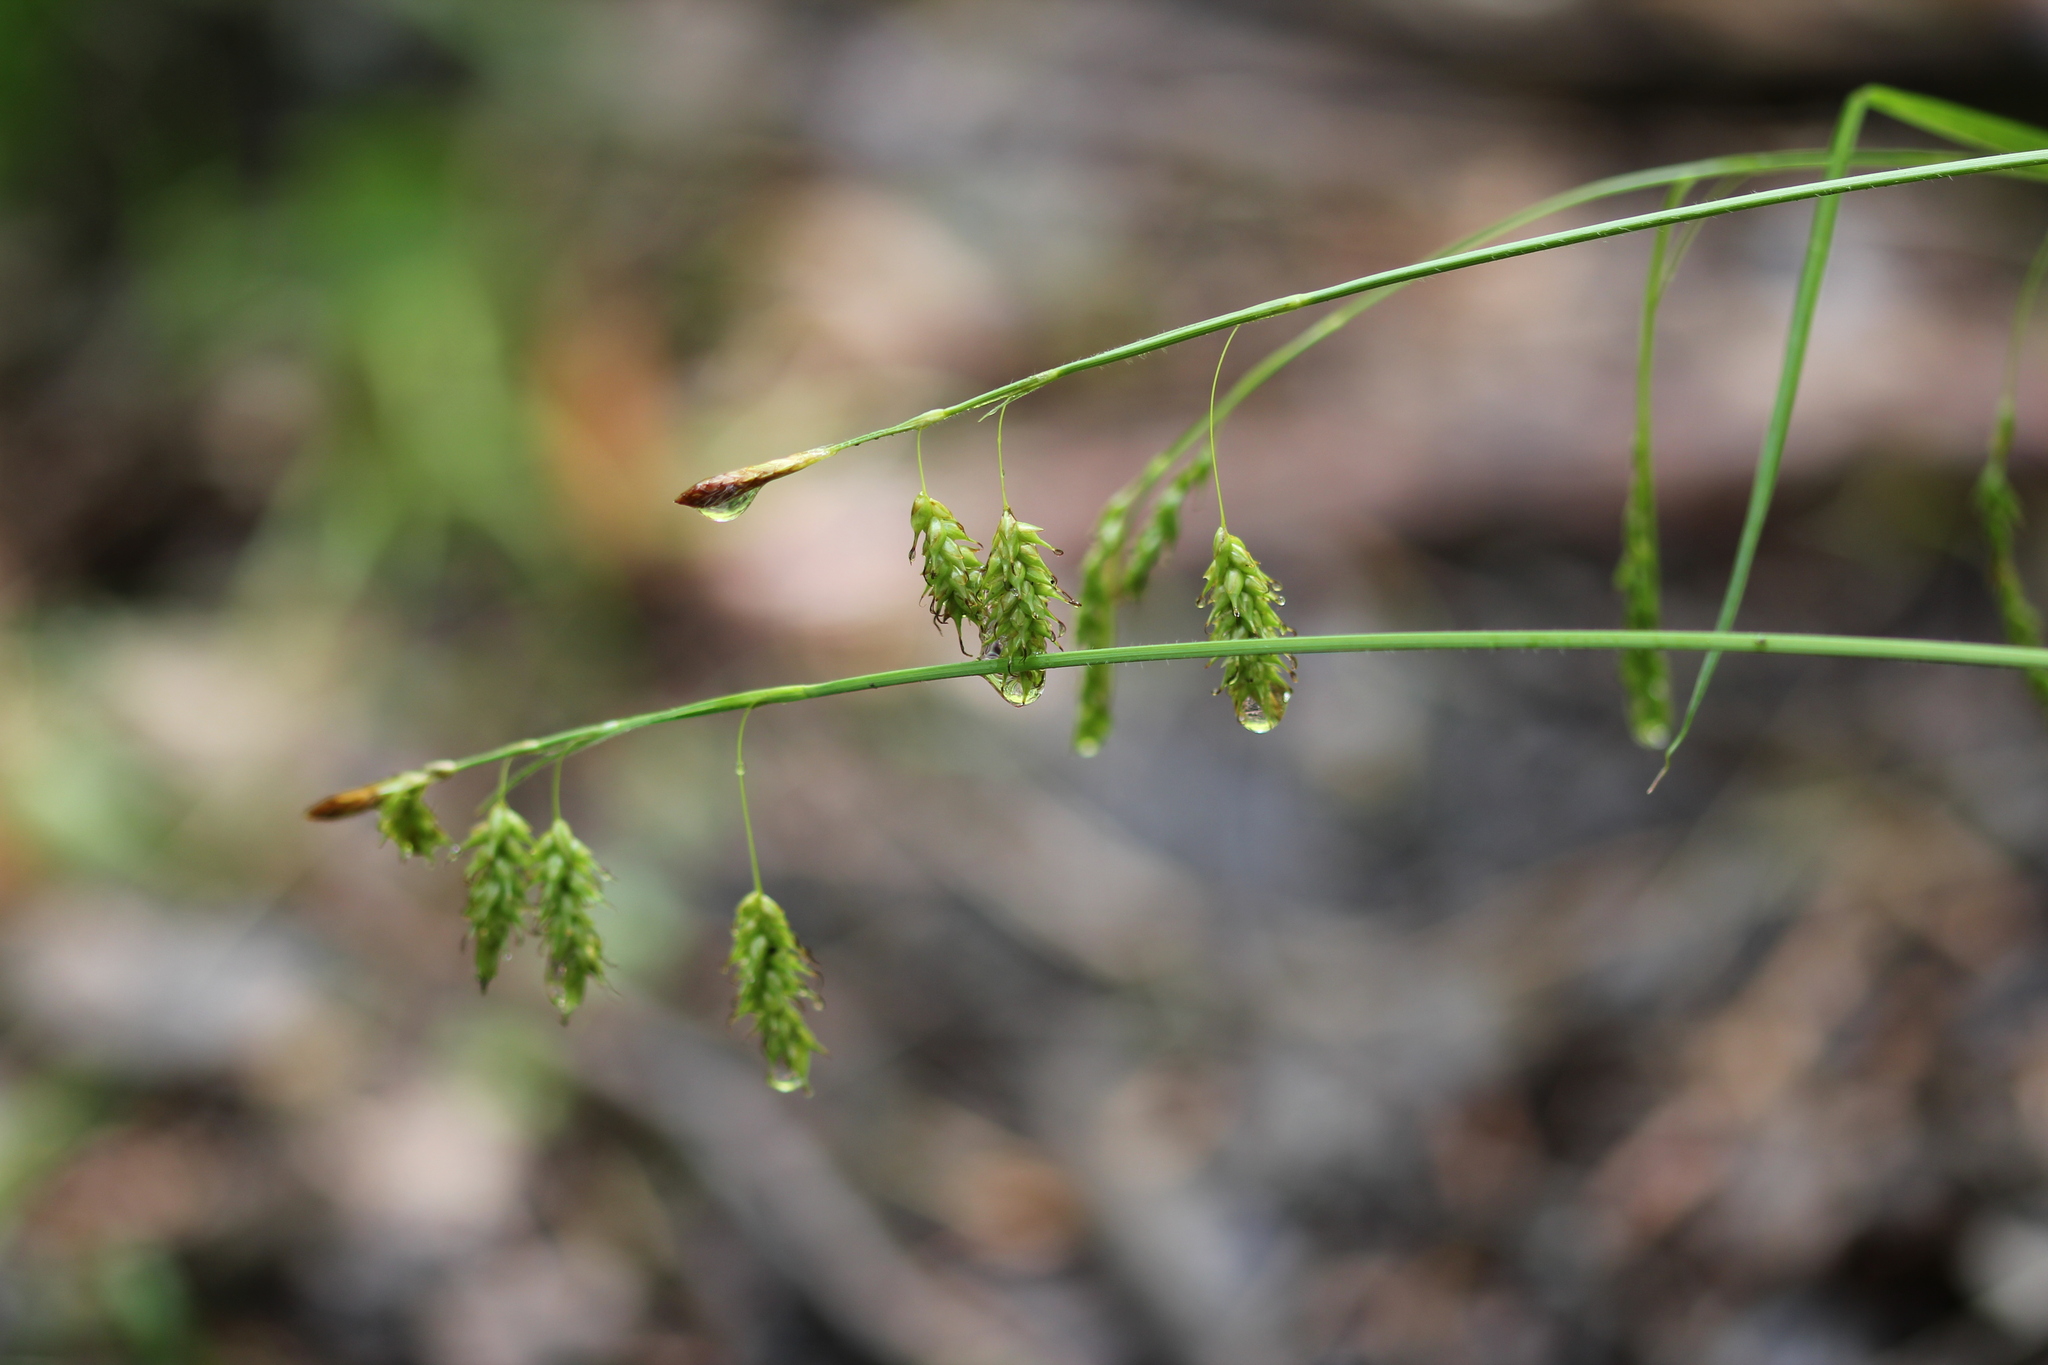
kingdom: Plantae
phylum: Tracheophyta
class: Liliopsida
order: Poales
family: Cyperaceae
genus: Carex
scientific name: Carex castanea
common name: Chestnut sedge
